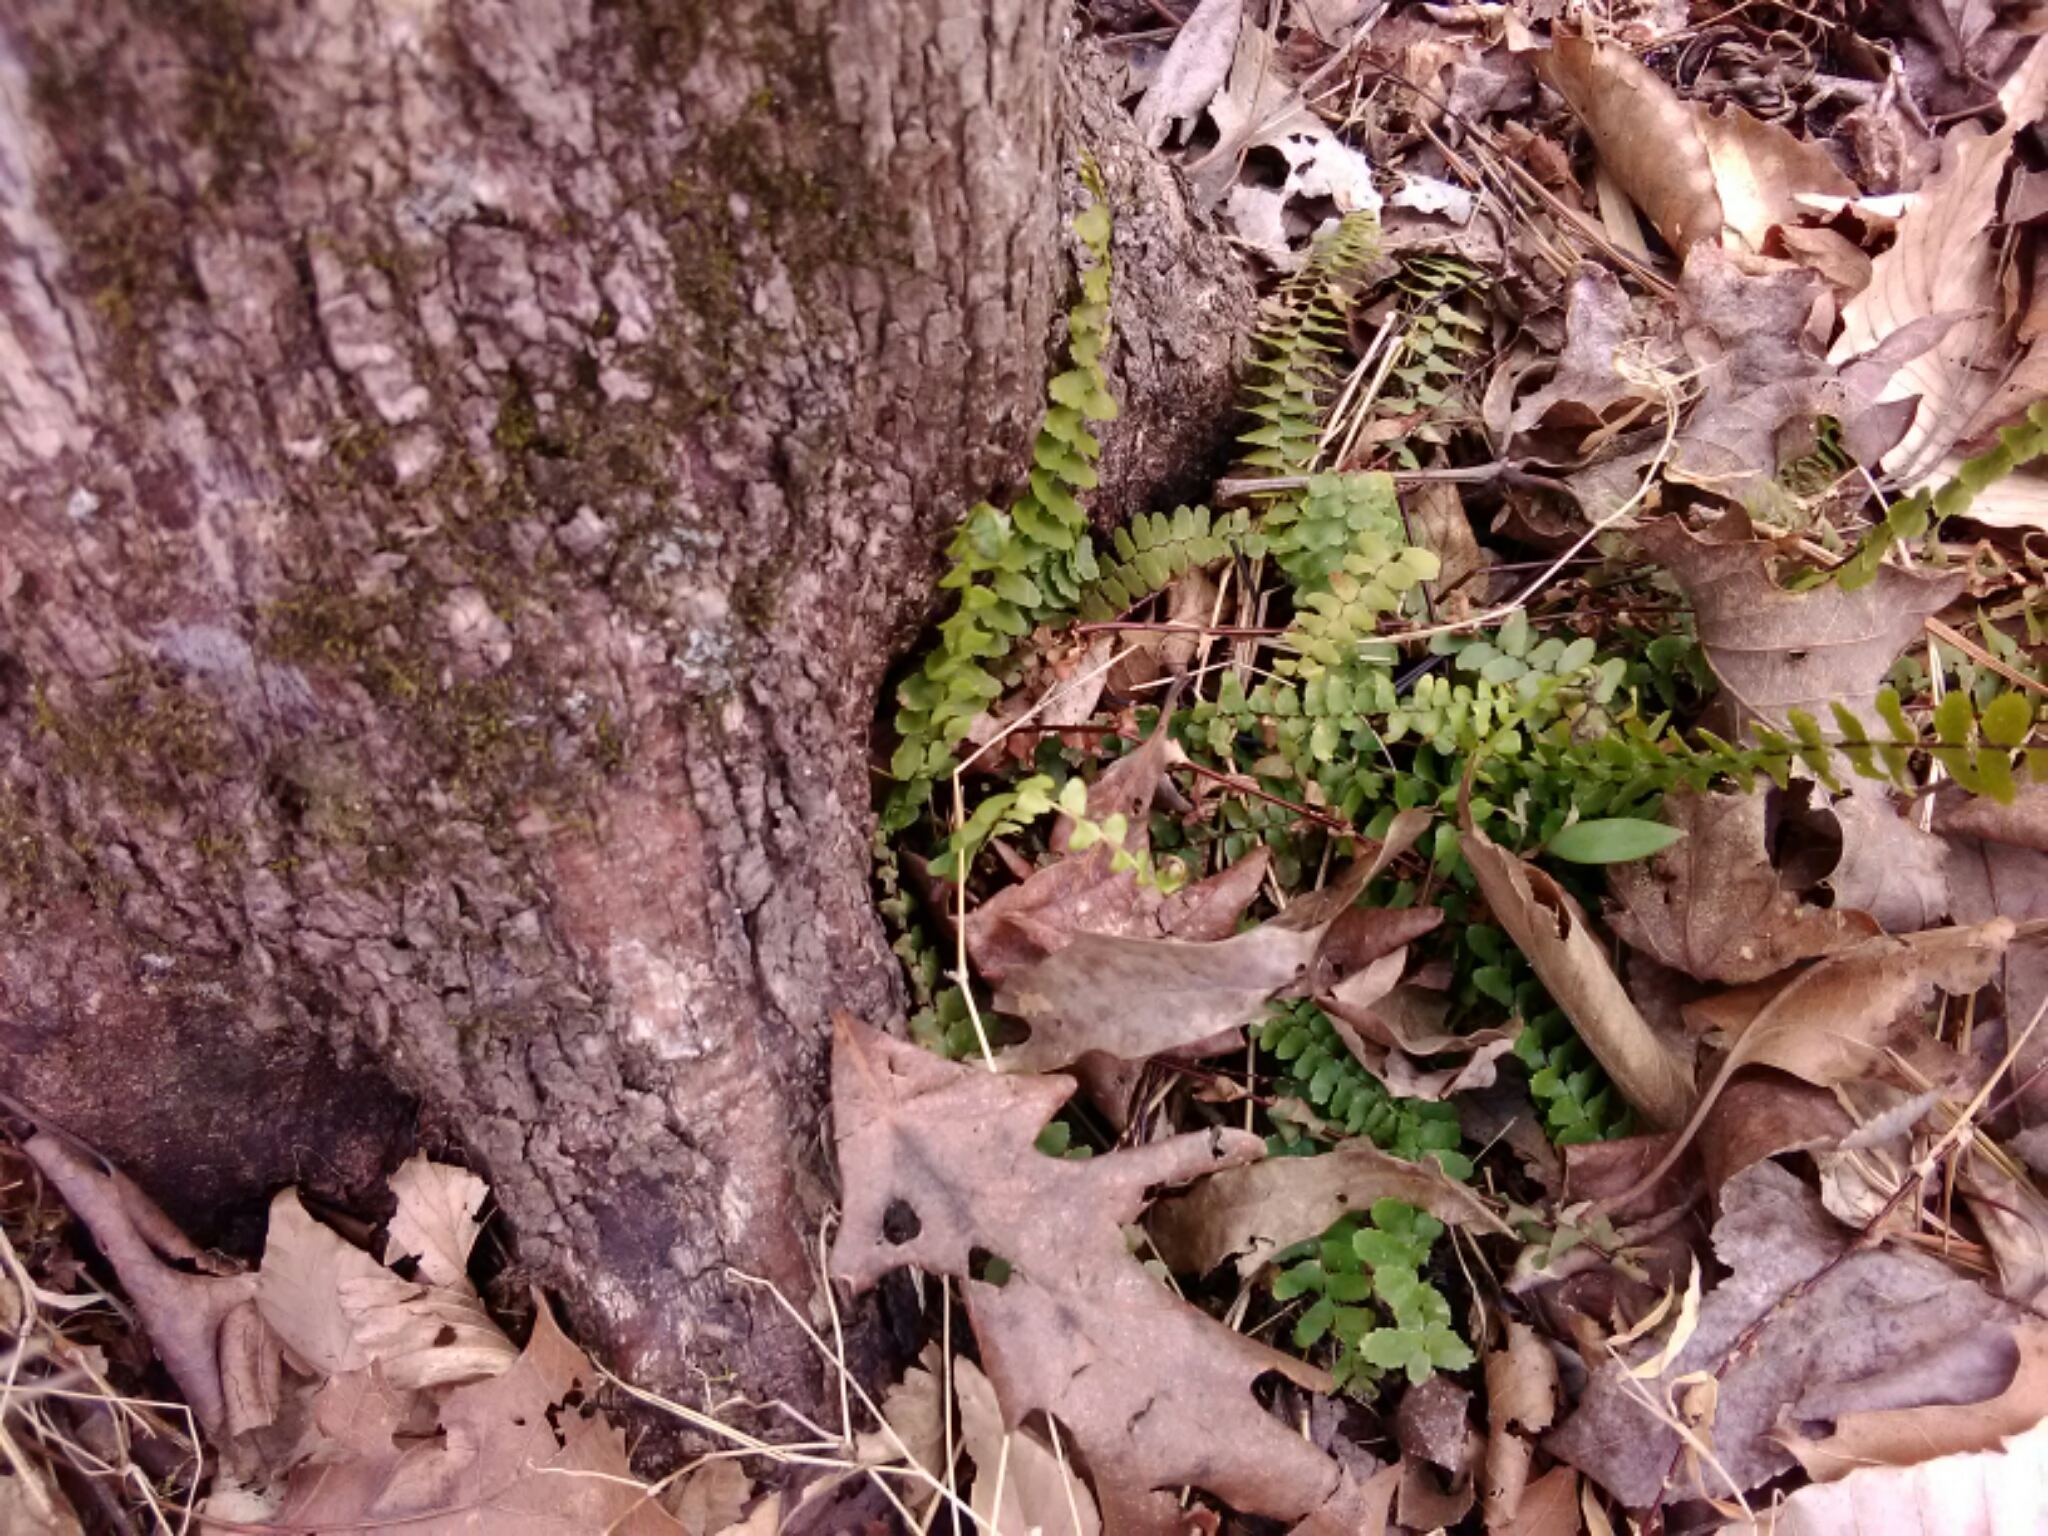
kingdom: Plantae
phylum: Tracheophyta
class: Polypodiopsida
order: Polypodiales
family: Aspleniaceae
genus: Asplenium
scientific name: Asplenium platyneuron
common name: Ebony spleenwort
